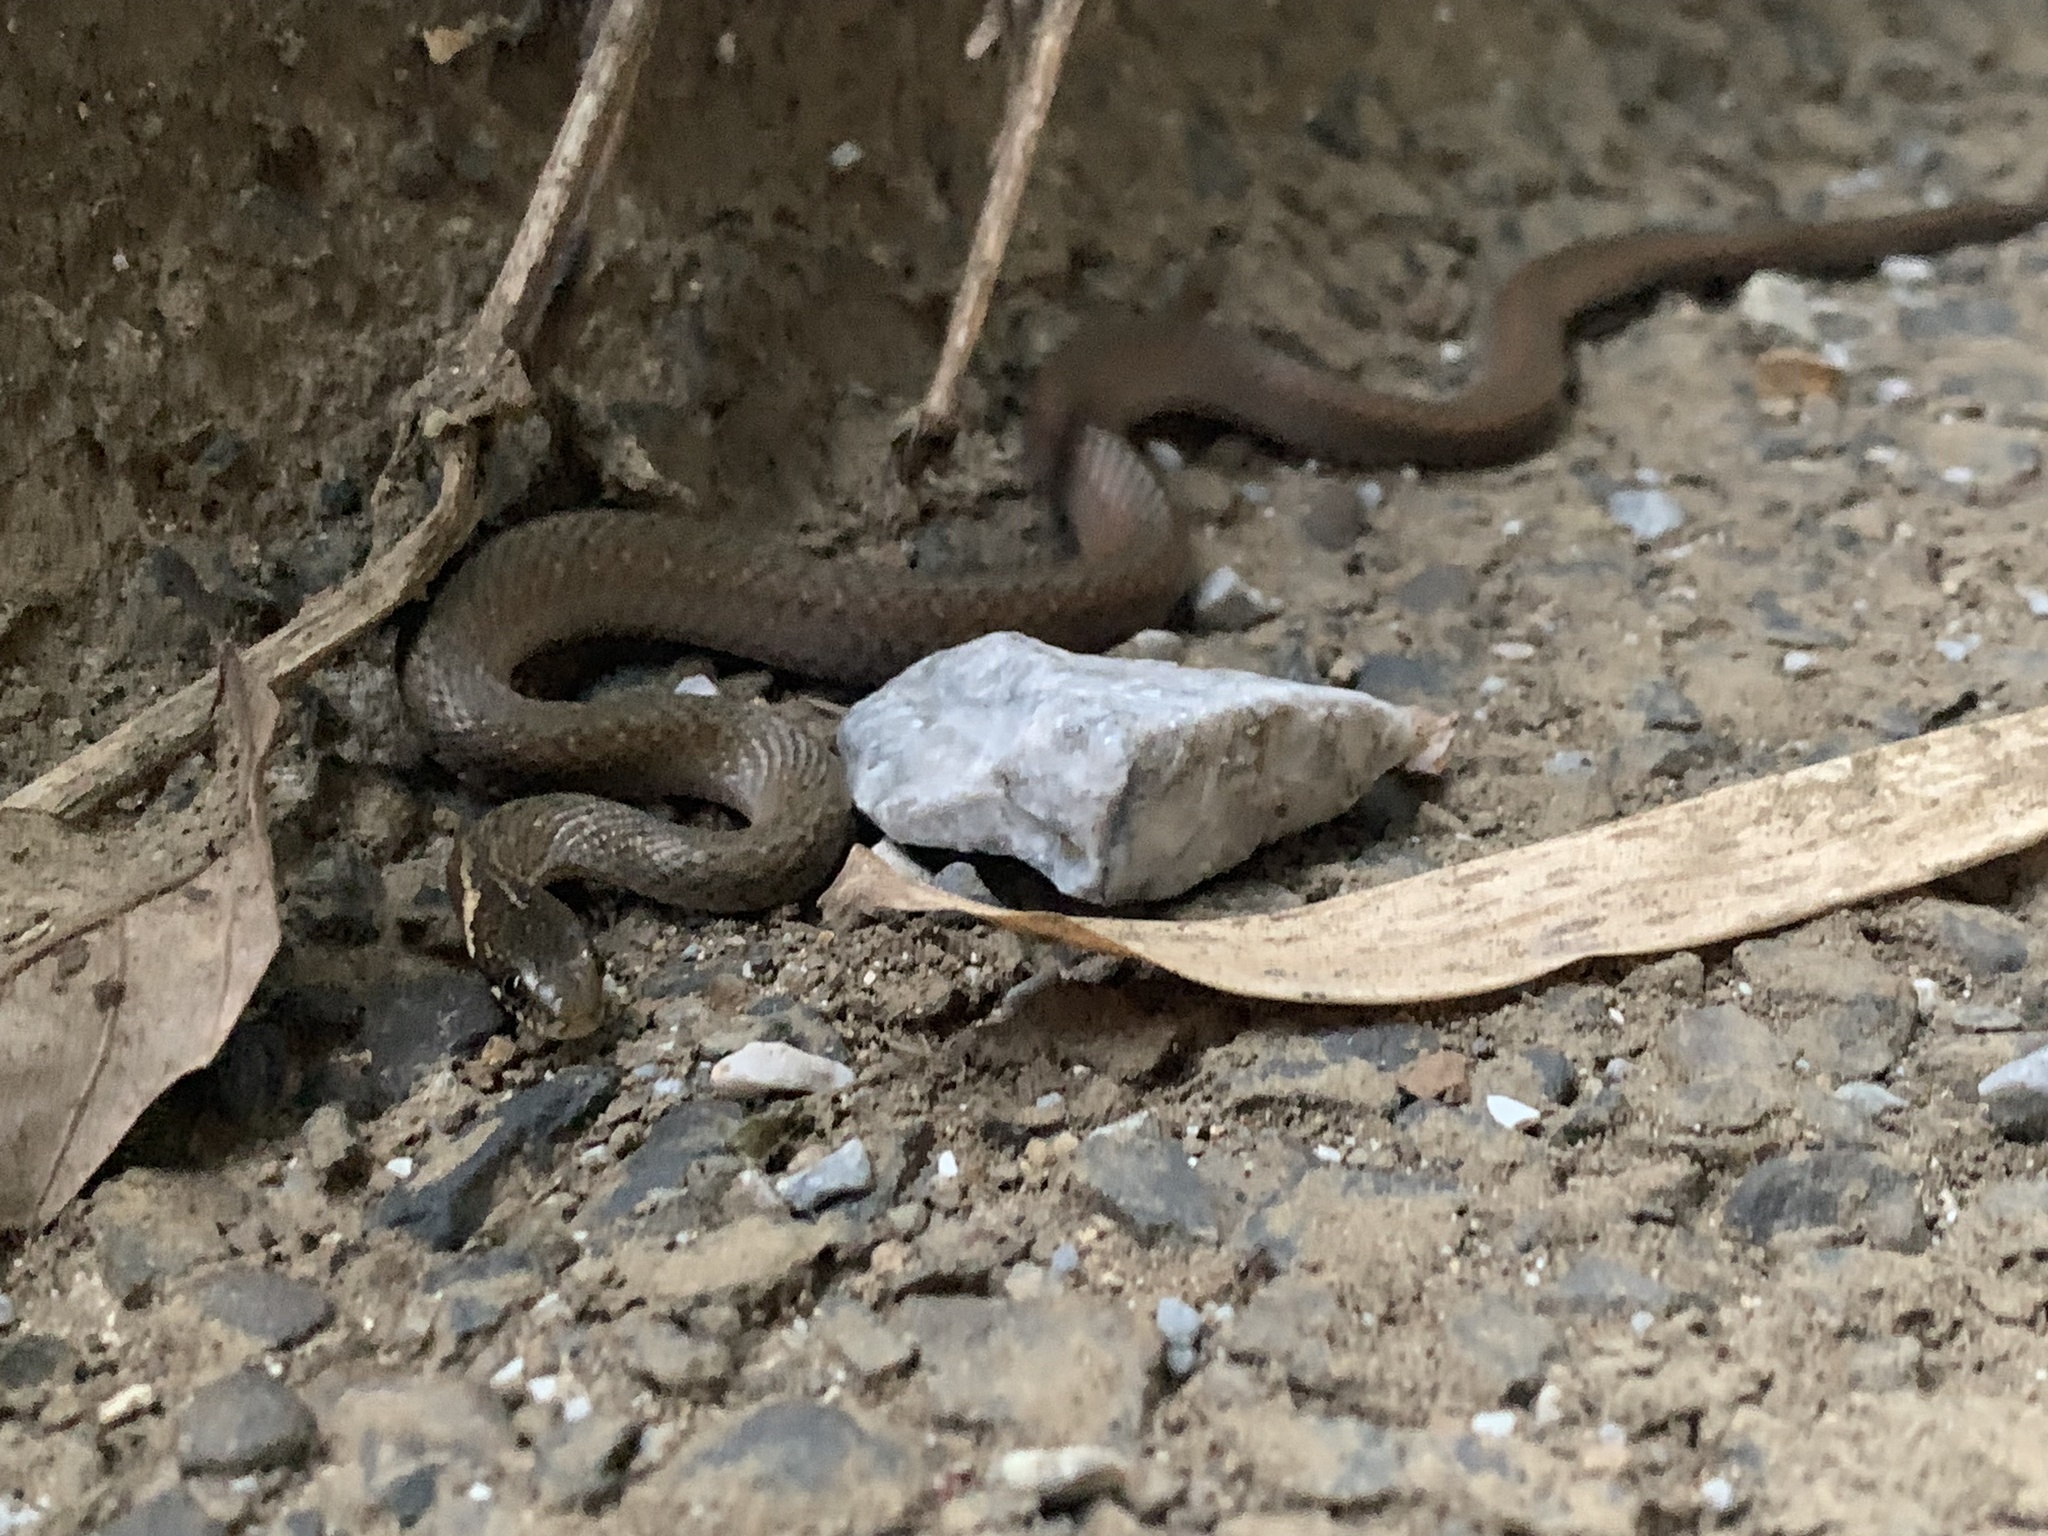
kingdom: Animalia
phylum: Chordata
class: Squamata
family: Colubridae
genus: Hebius
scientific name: Hebius vibakari
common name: Japanese keelback
